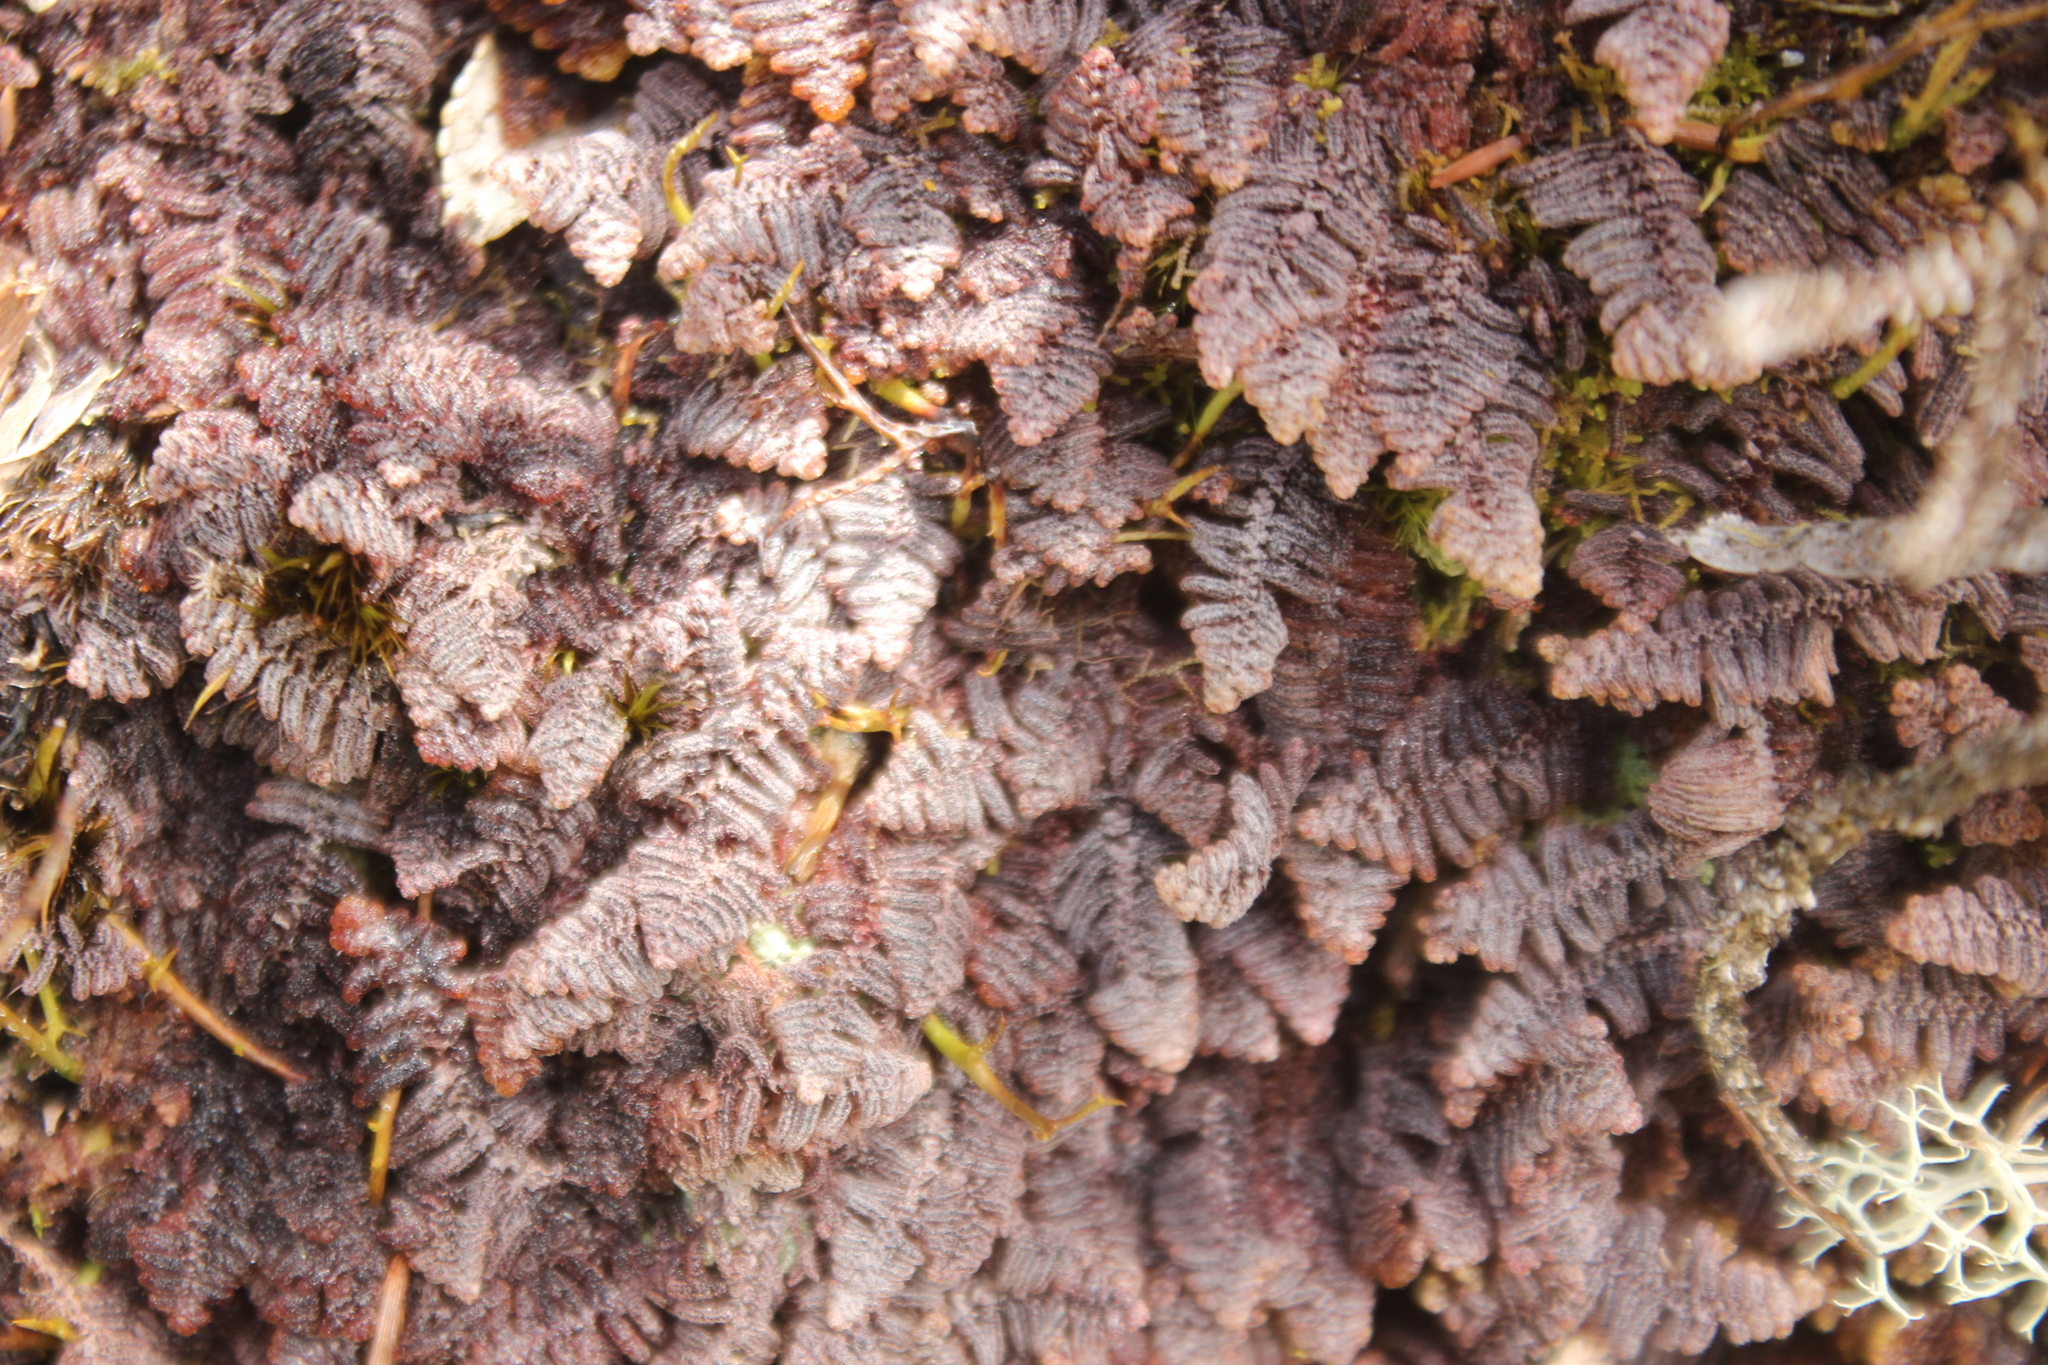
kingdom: Plantae
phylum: Marchantiophyta
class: Jungermanniopsida
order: Ptilidiales
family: Herzogianthaceae
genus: Herzogianthus
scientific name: Herzogianthus vaginatus
